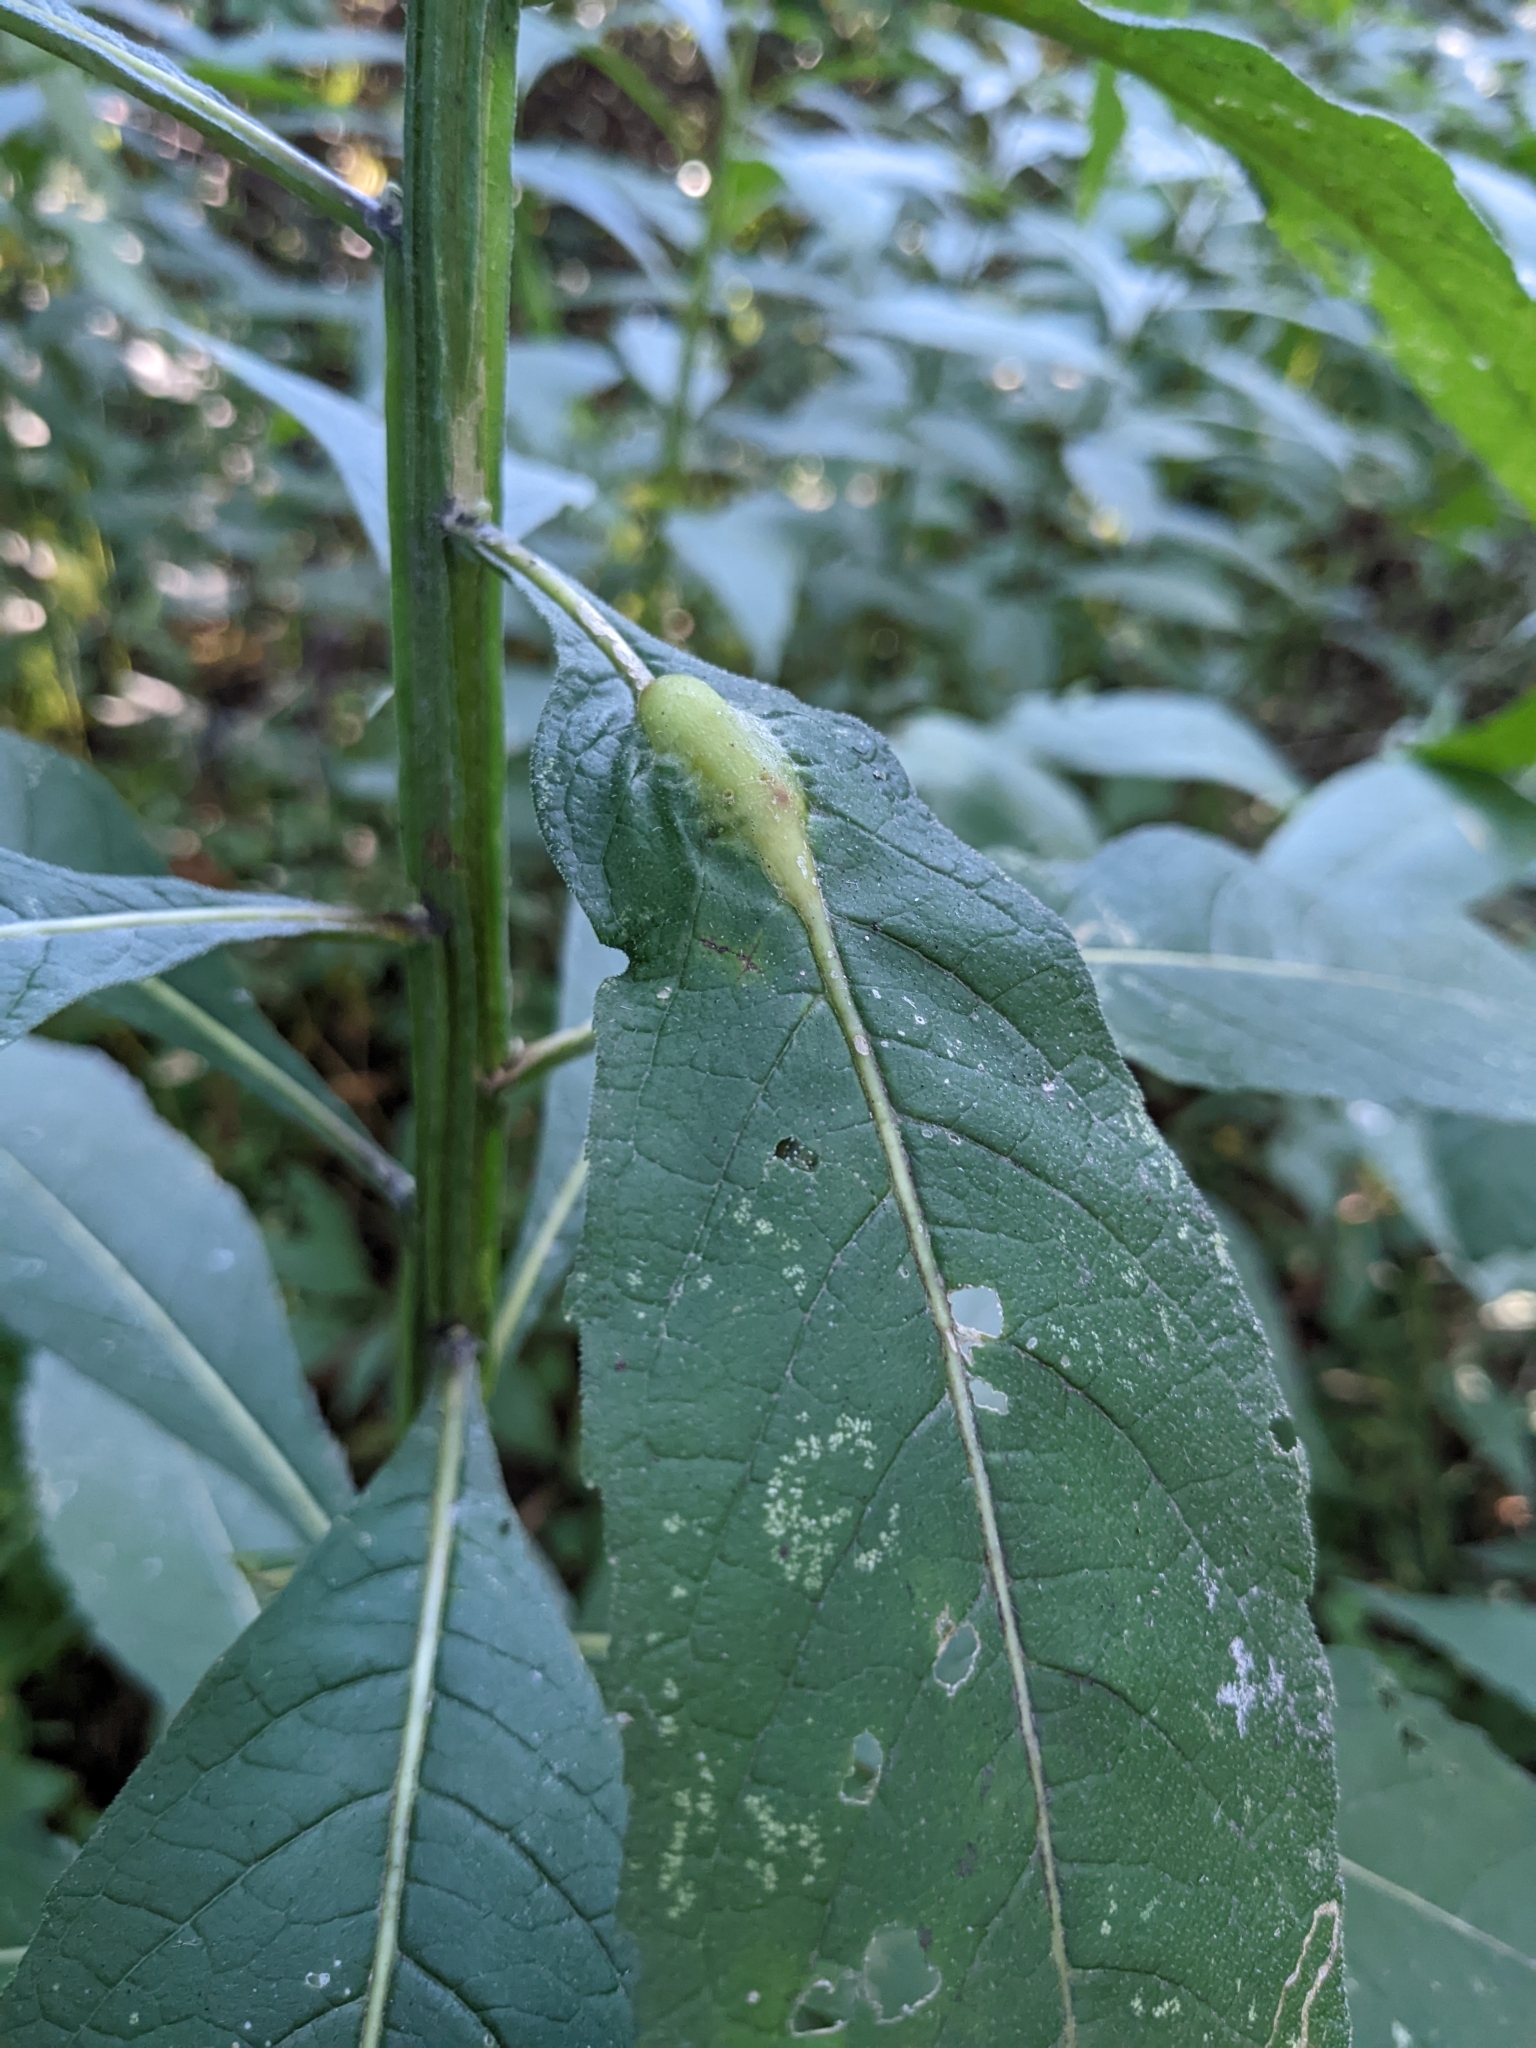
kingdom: Animalia
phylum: Arthropoda
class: Insecta
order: Diptera
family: Cecidomyiidae
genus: Neolasioptera
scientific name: Neolasioptera vernoniae
